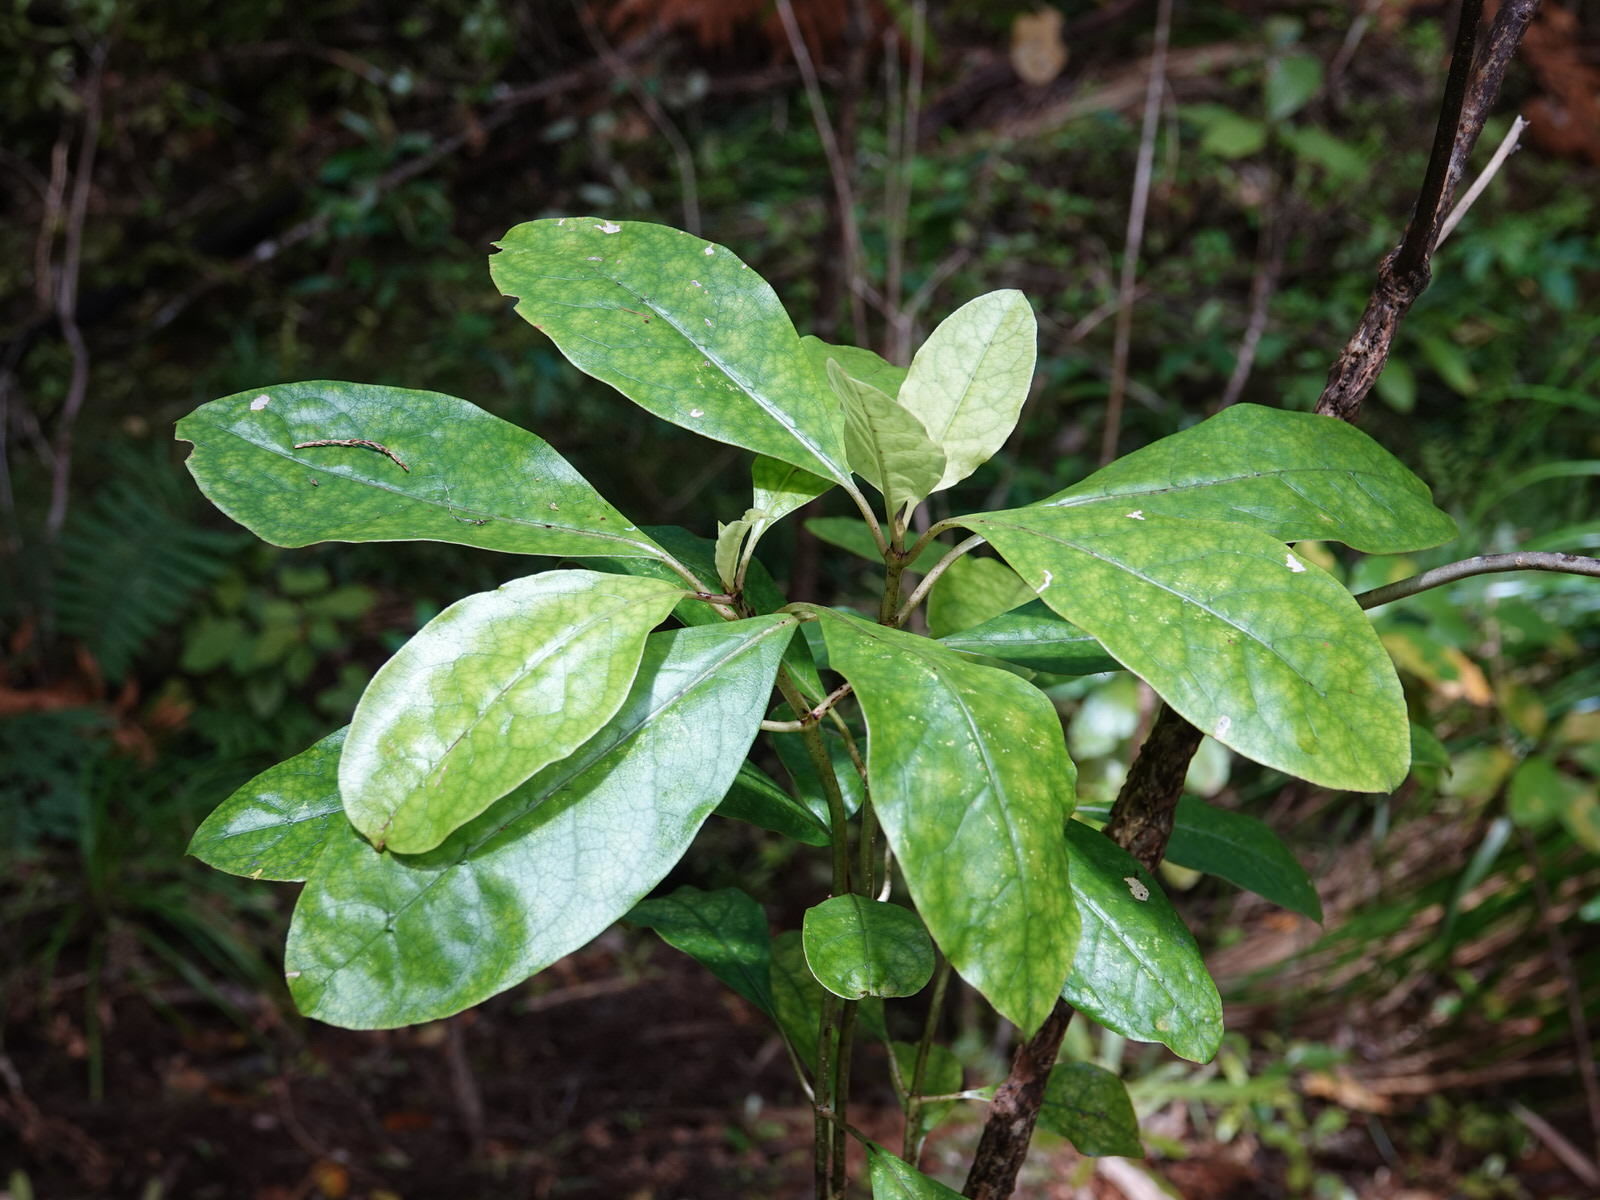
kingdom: Plantae
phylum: Tracheophyta
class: Magnoliopsida
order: Gentianales
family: Rubiaceae
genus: Coprosma
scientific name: Coprosma autumnalis
